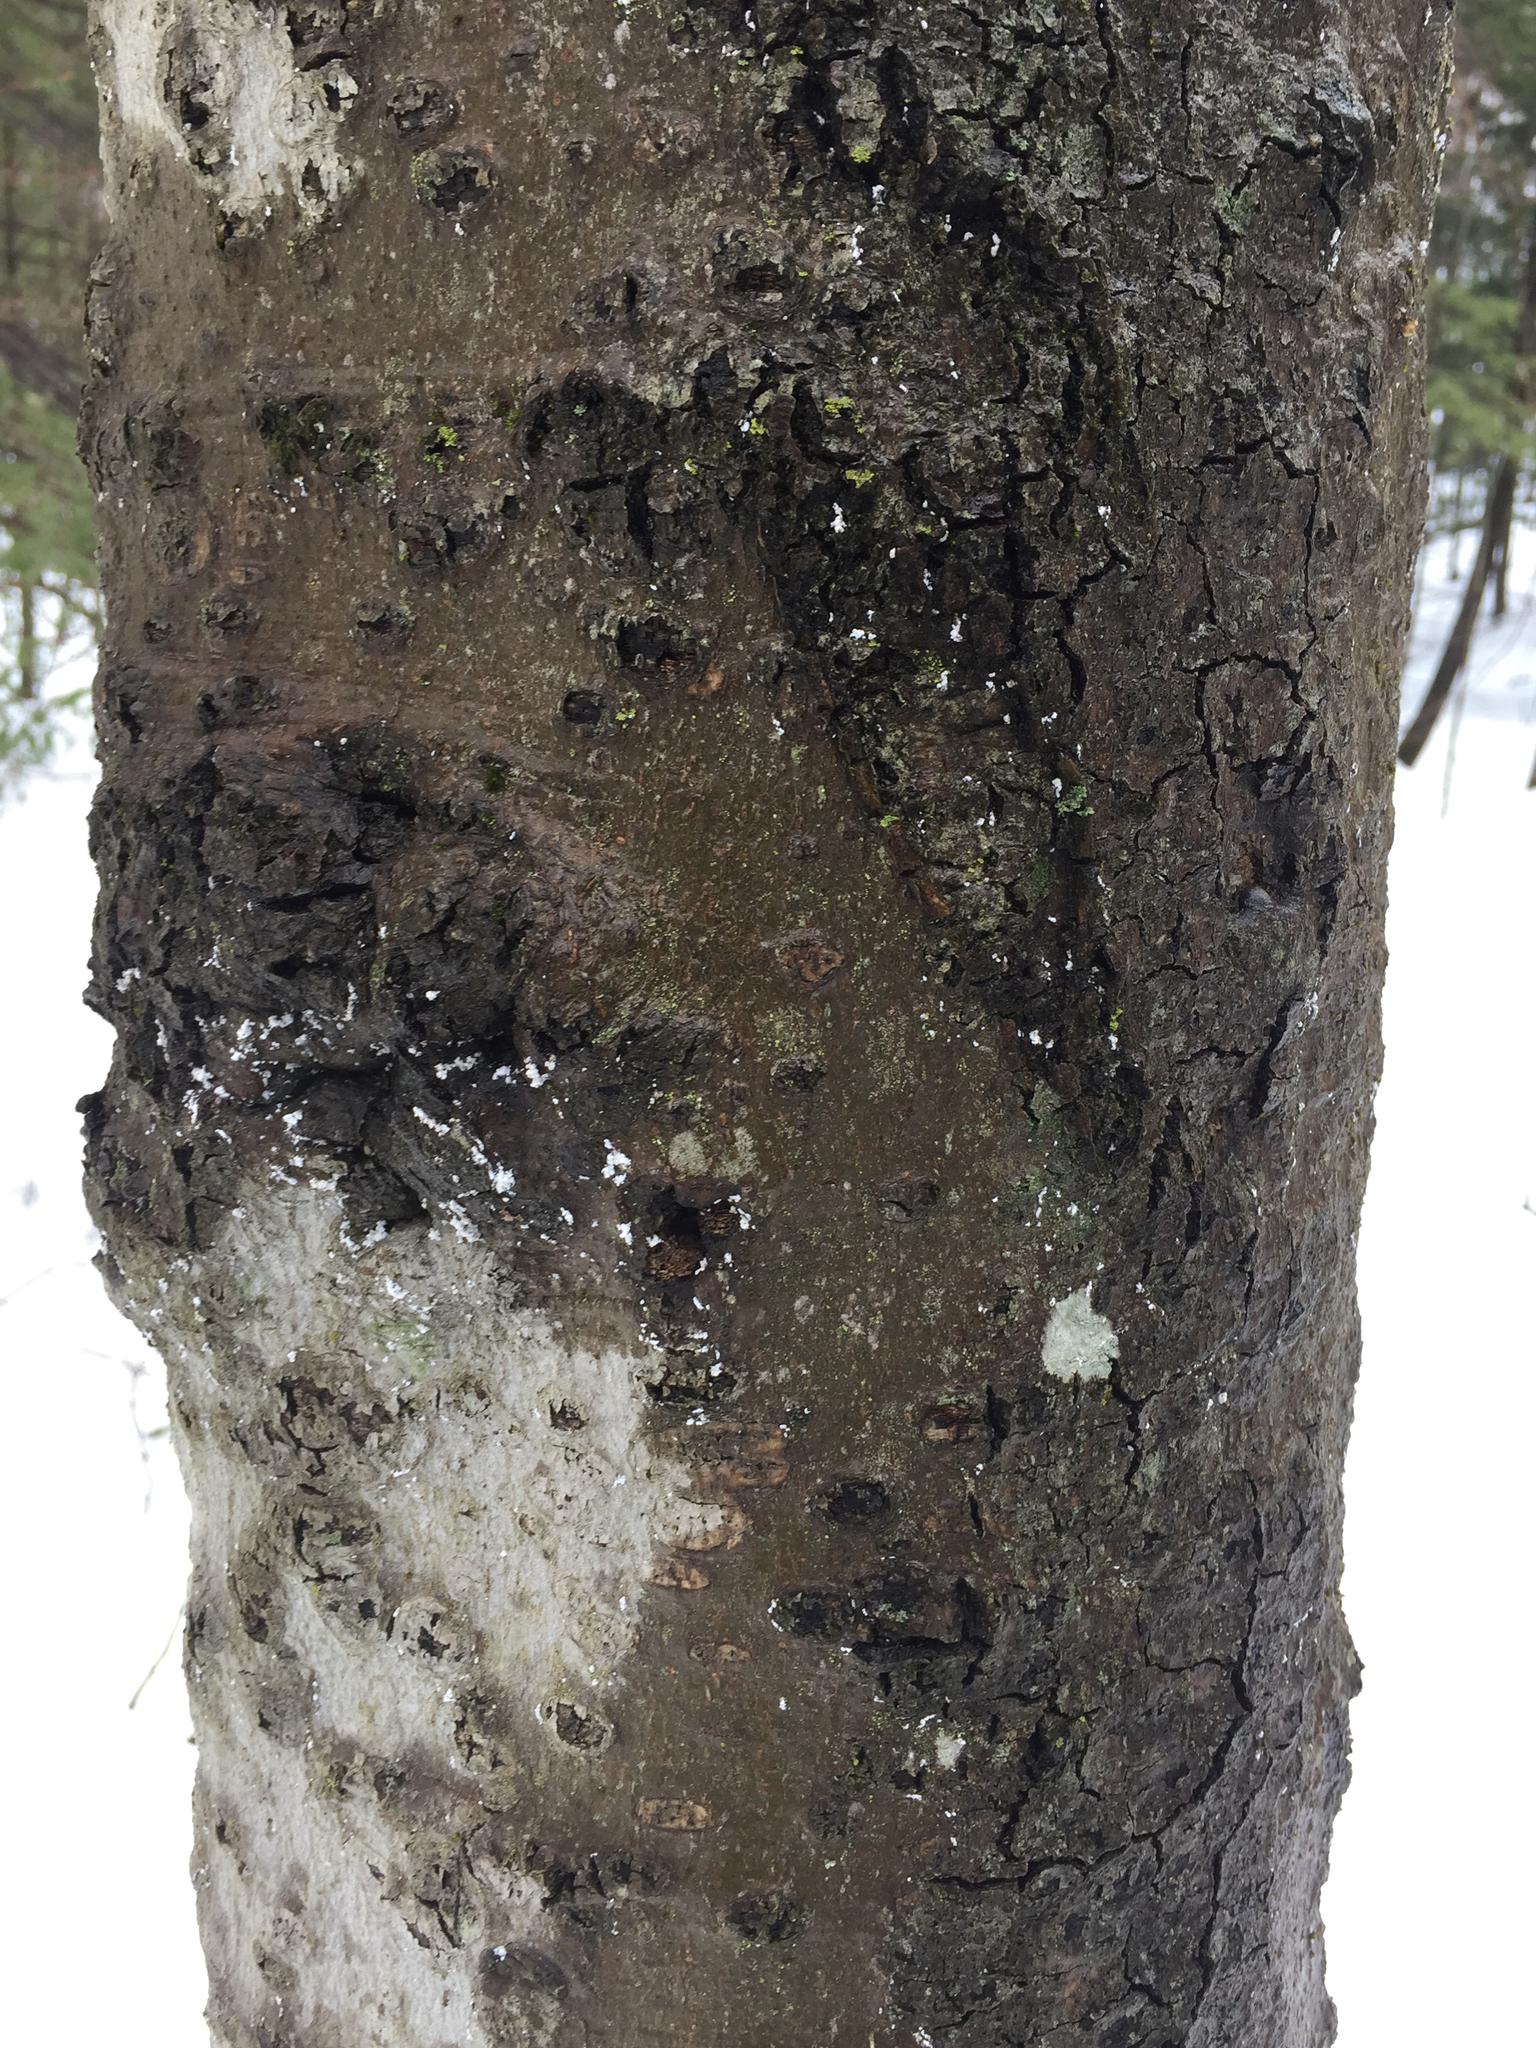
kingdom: Plantae
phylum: Tracheophyta
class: Magnoliopsida
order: Fagales
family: Fagaceae
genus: Fagus
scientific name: Fagus grandifolia
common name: American beech
